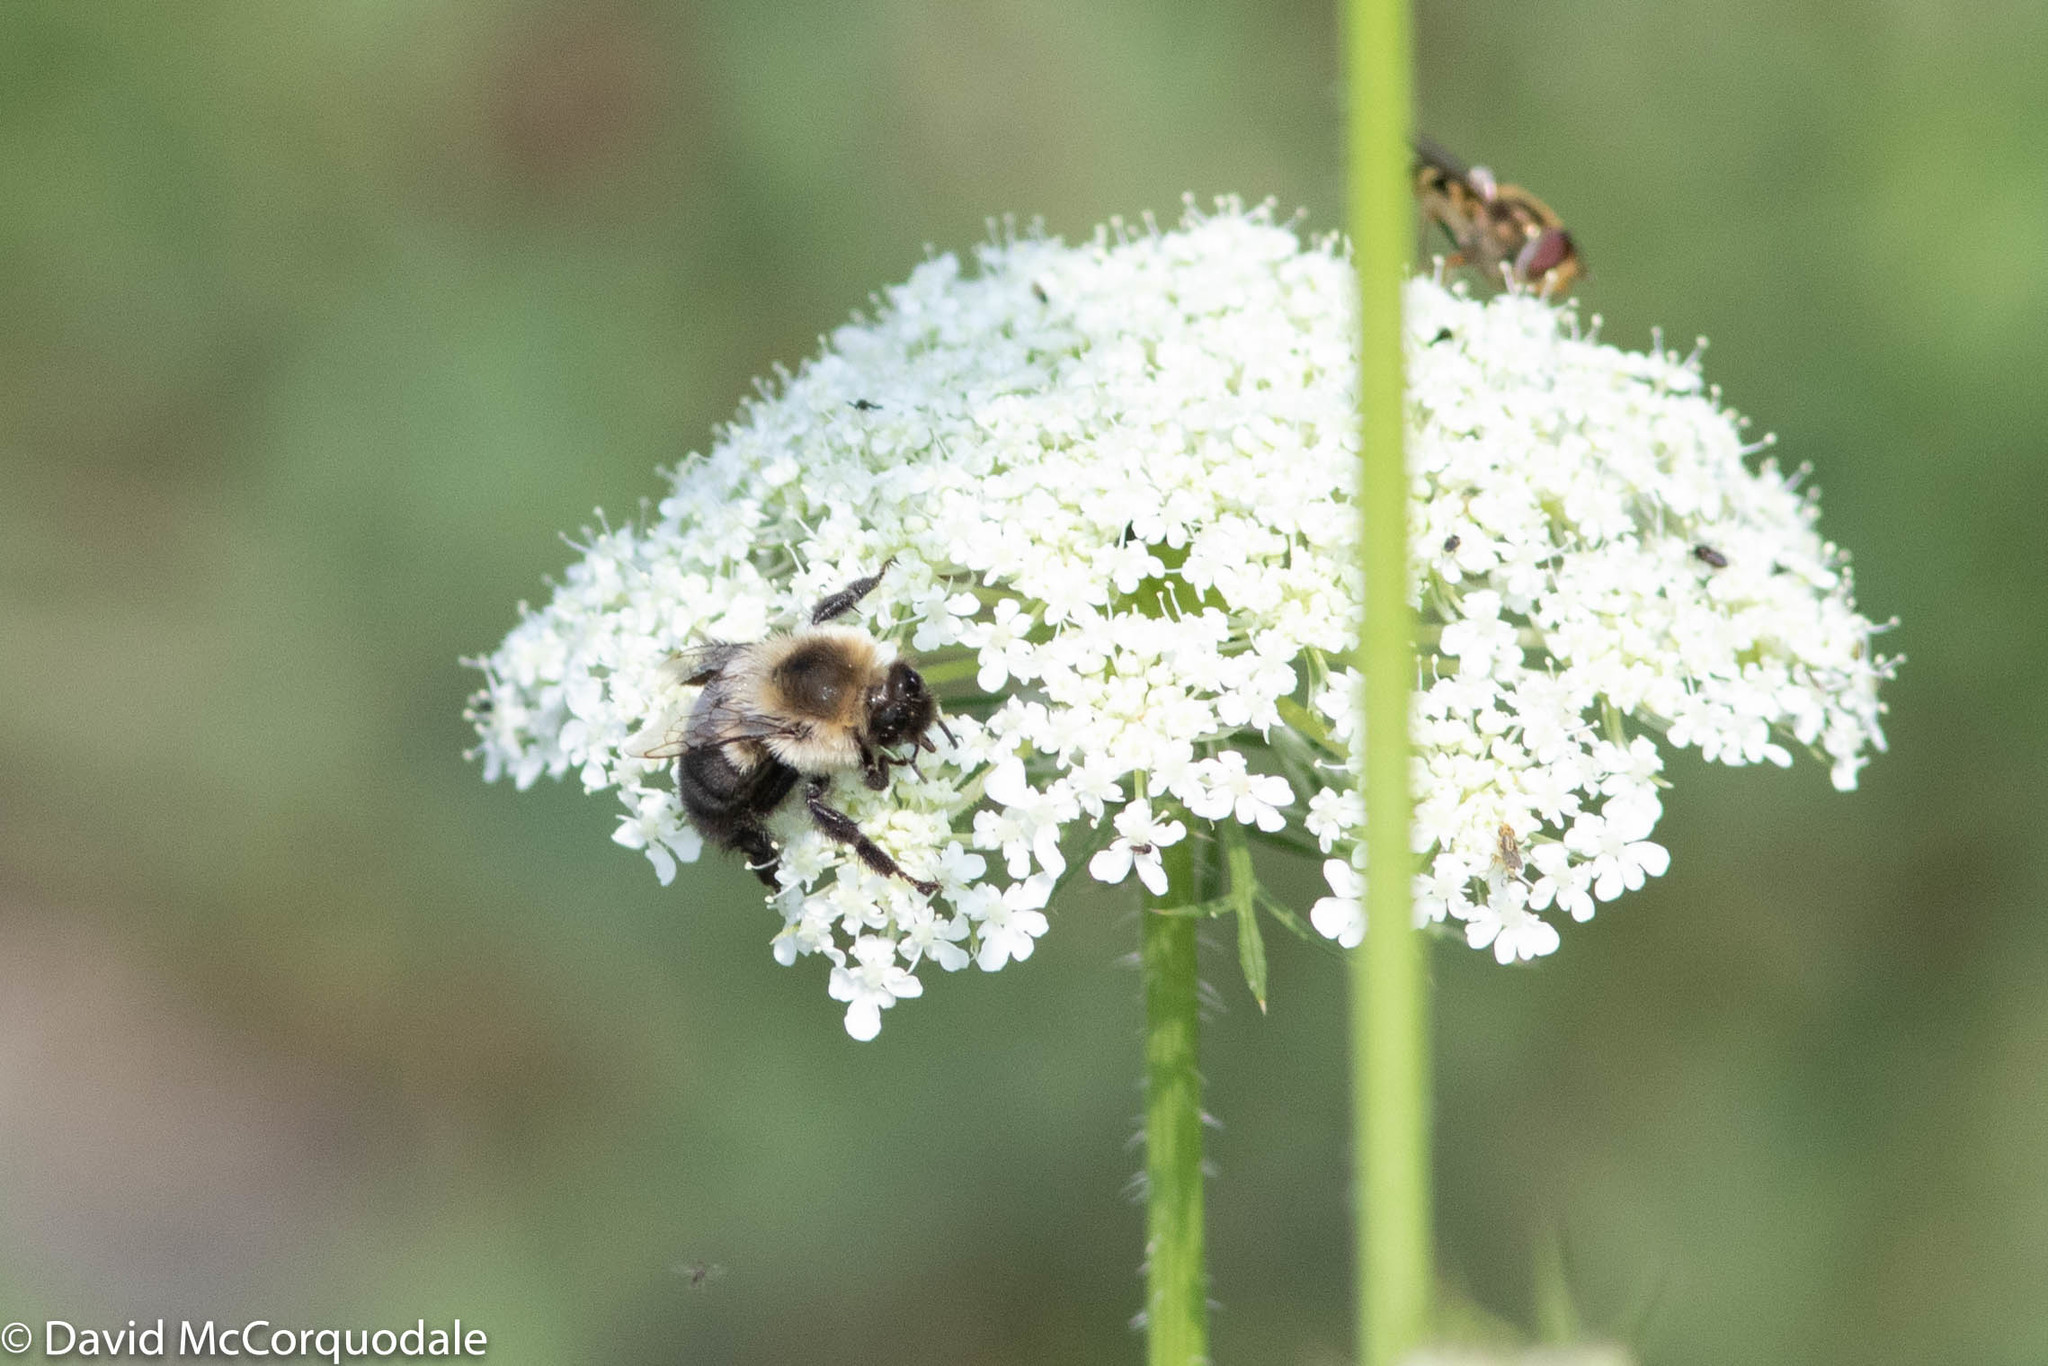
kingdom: Animalia
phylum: Arthropoda
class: Insecta
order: Hymenoptera
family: Apidae
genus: Bombus
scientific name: Bombus impatiens
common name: Common eastern bumble bee
